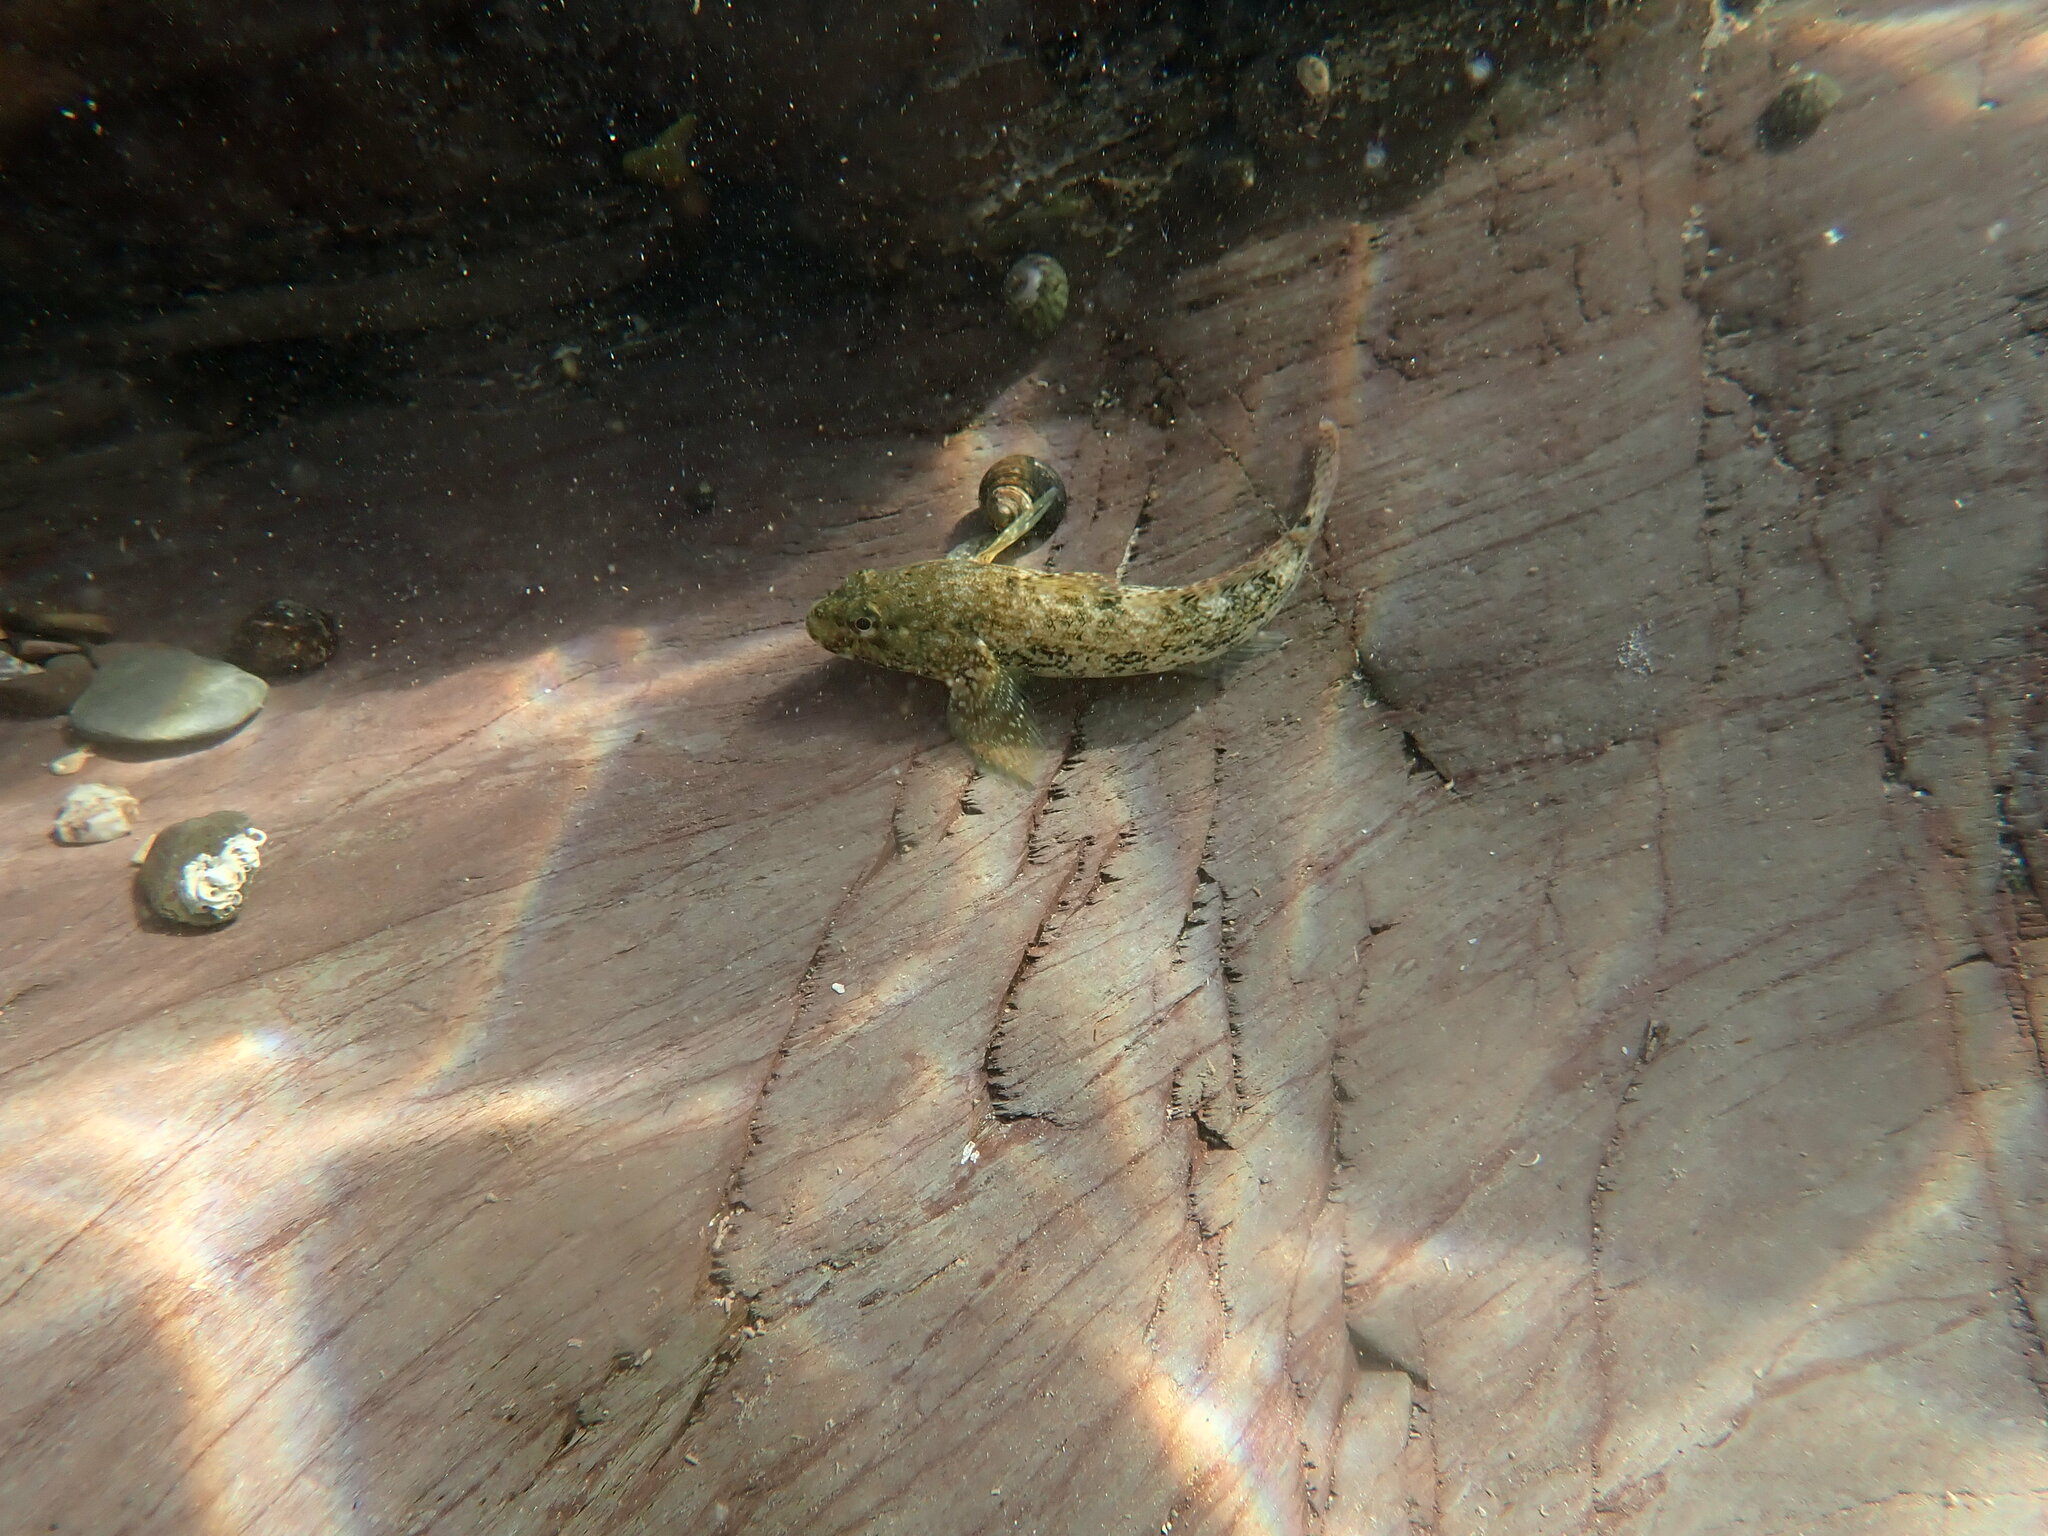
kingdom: Animalia
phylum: Chordata
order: Perciformes
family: Gobiidae
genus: Gobius
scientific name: Gobius cobitis
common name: Giant goby
